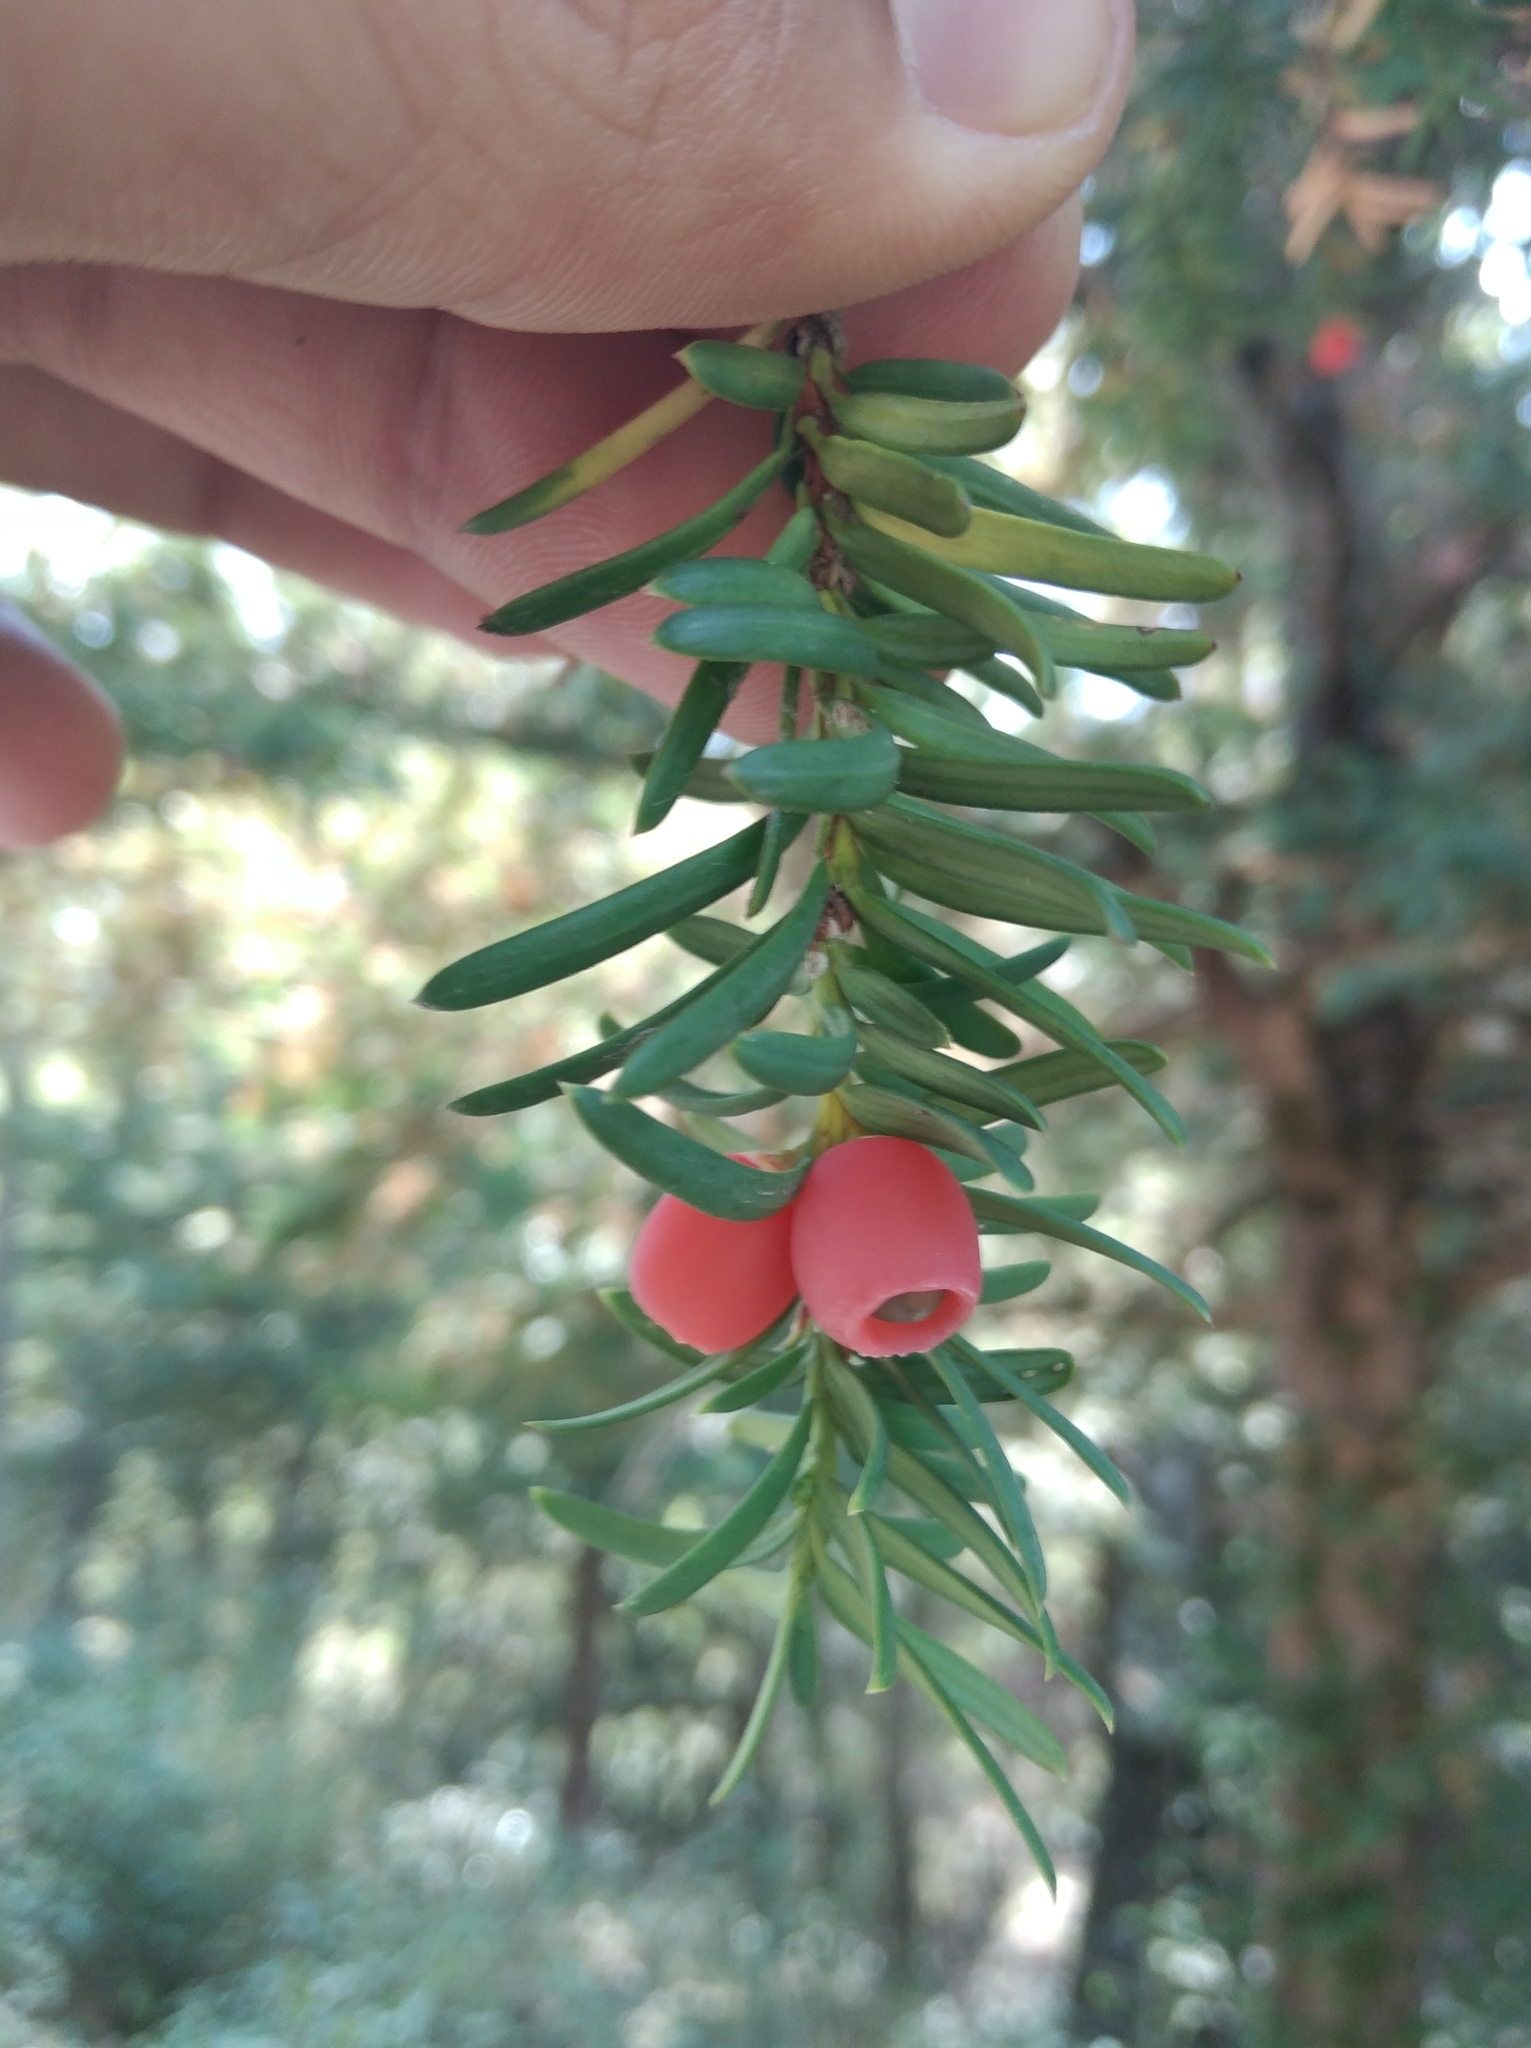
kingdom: Plantae
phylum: Tracheophyta
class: Pinopsida
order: Pinales
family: Taxaceae
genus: Taxus
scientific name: Taxus baccata
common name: Yew
